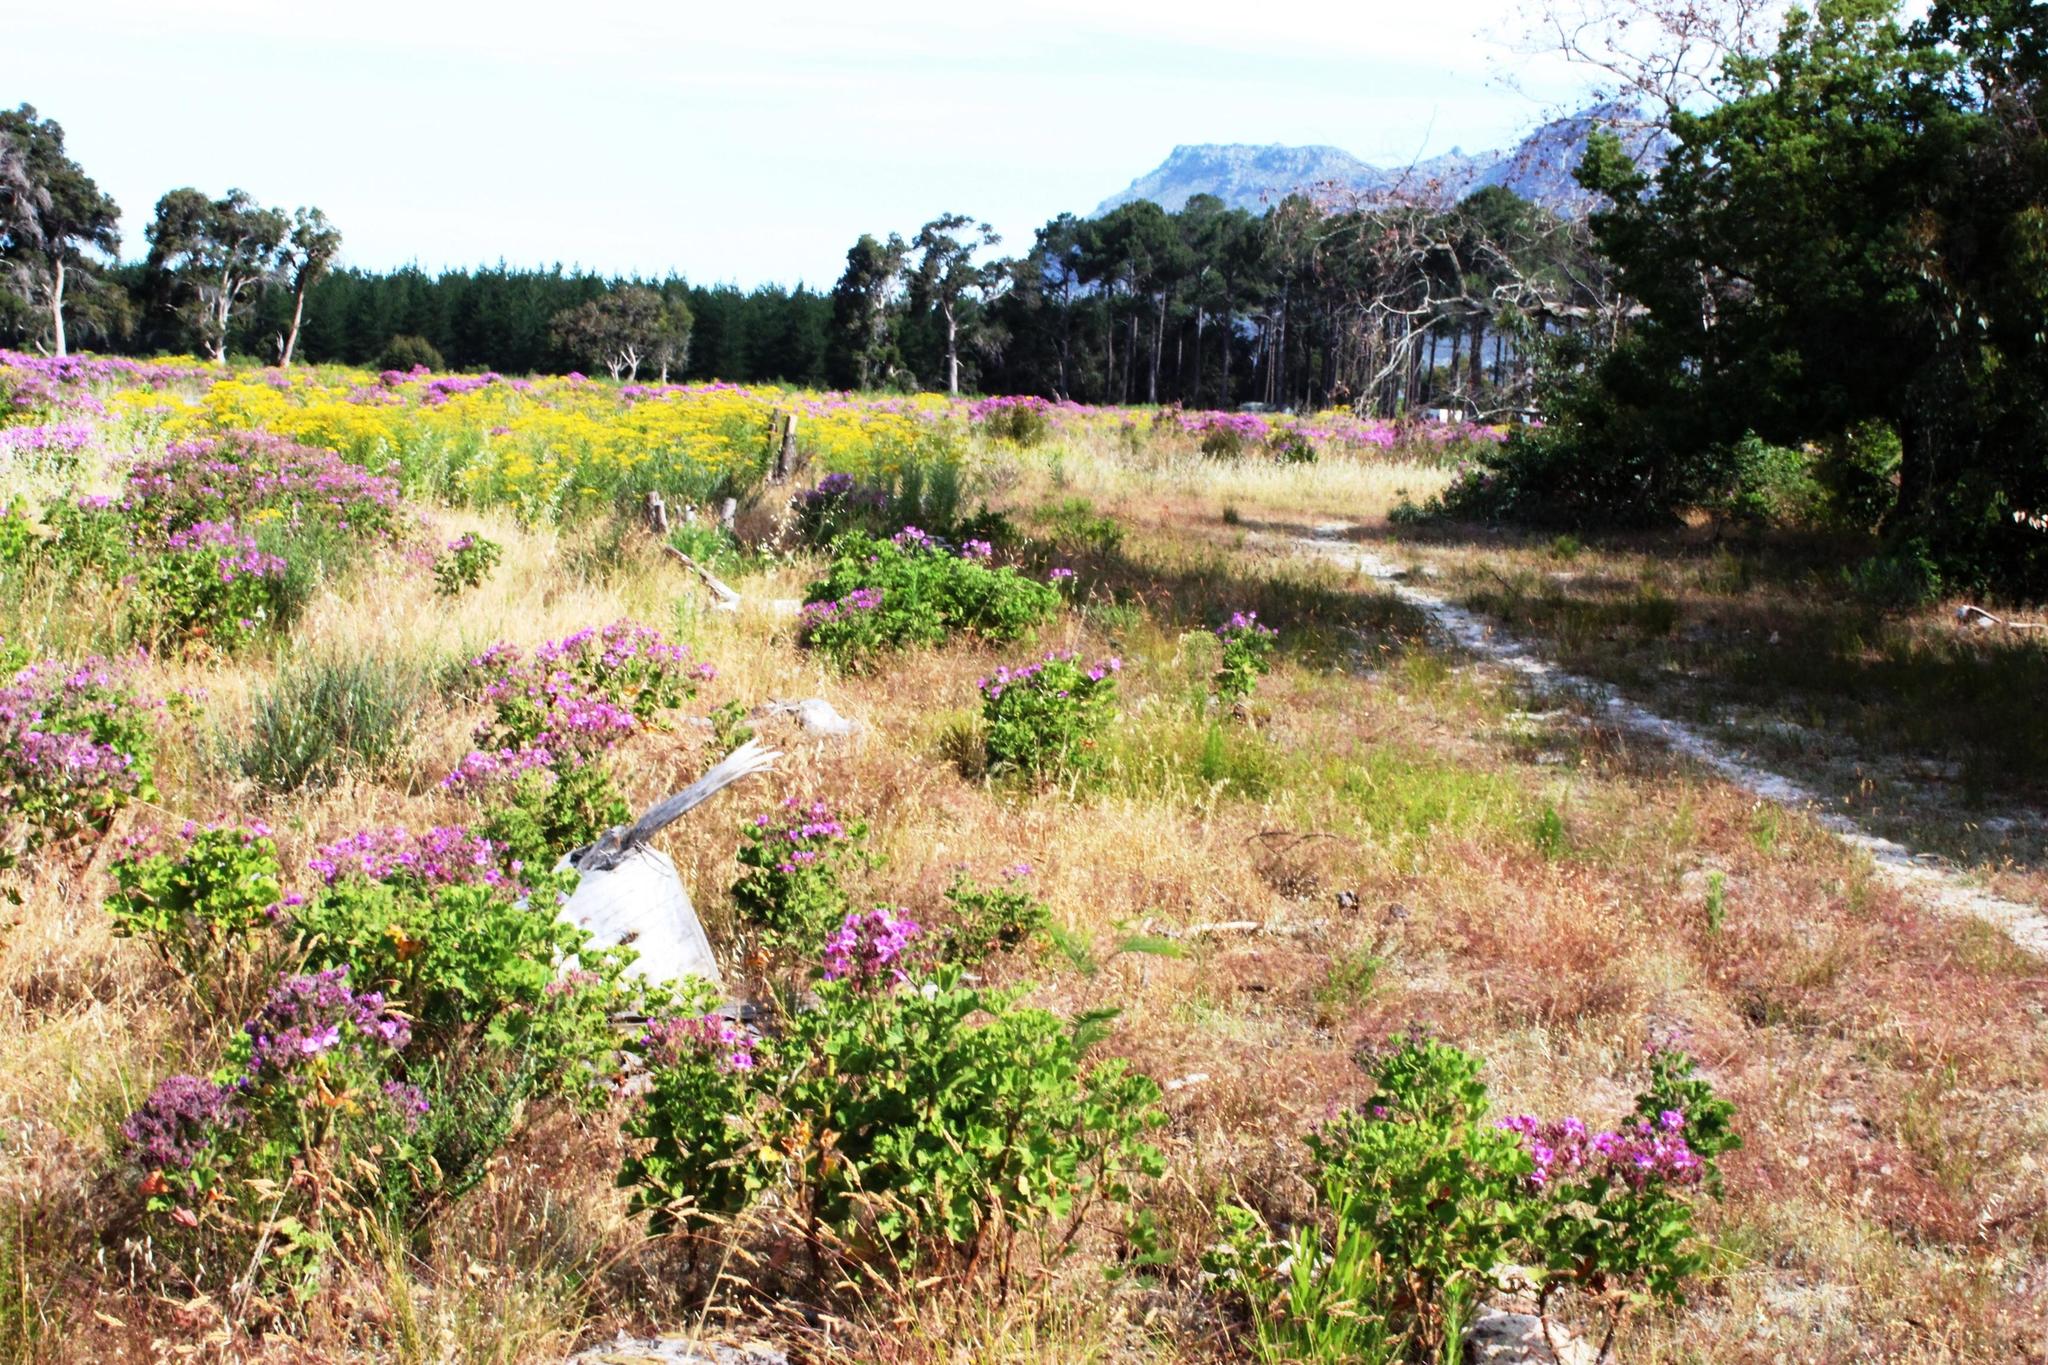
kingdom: Plantae
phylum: Tracheophyta
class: Magnoliopsida
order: Asterales
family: Asteraceae
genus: Hymenolepis
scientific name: Hymenolepis crithmifolia
